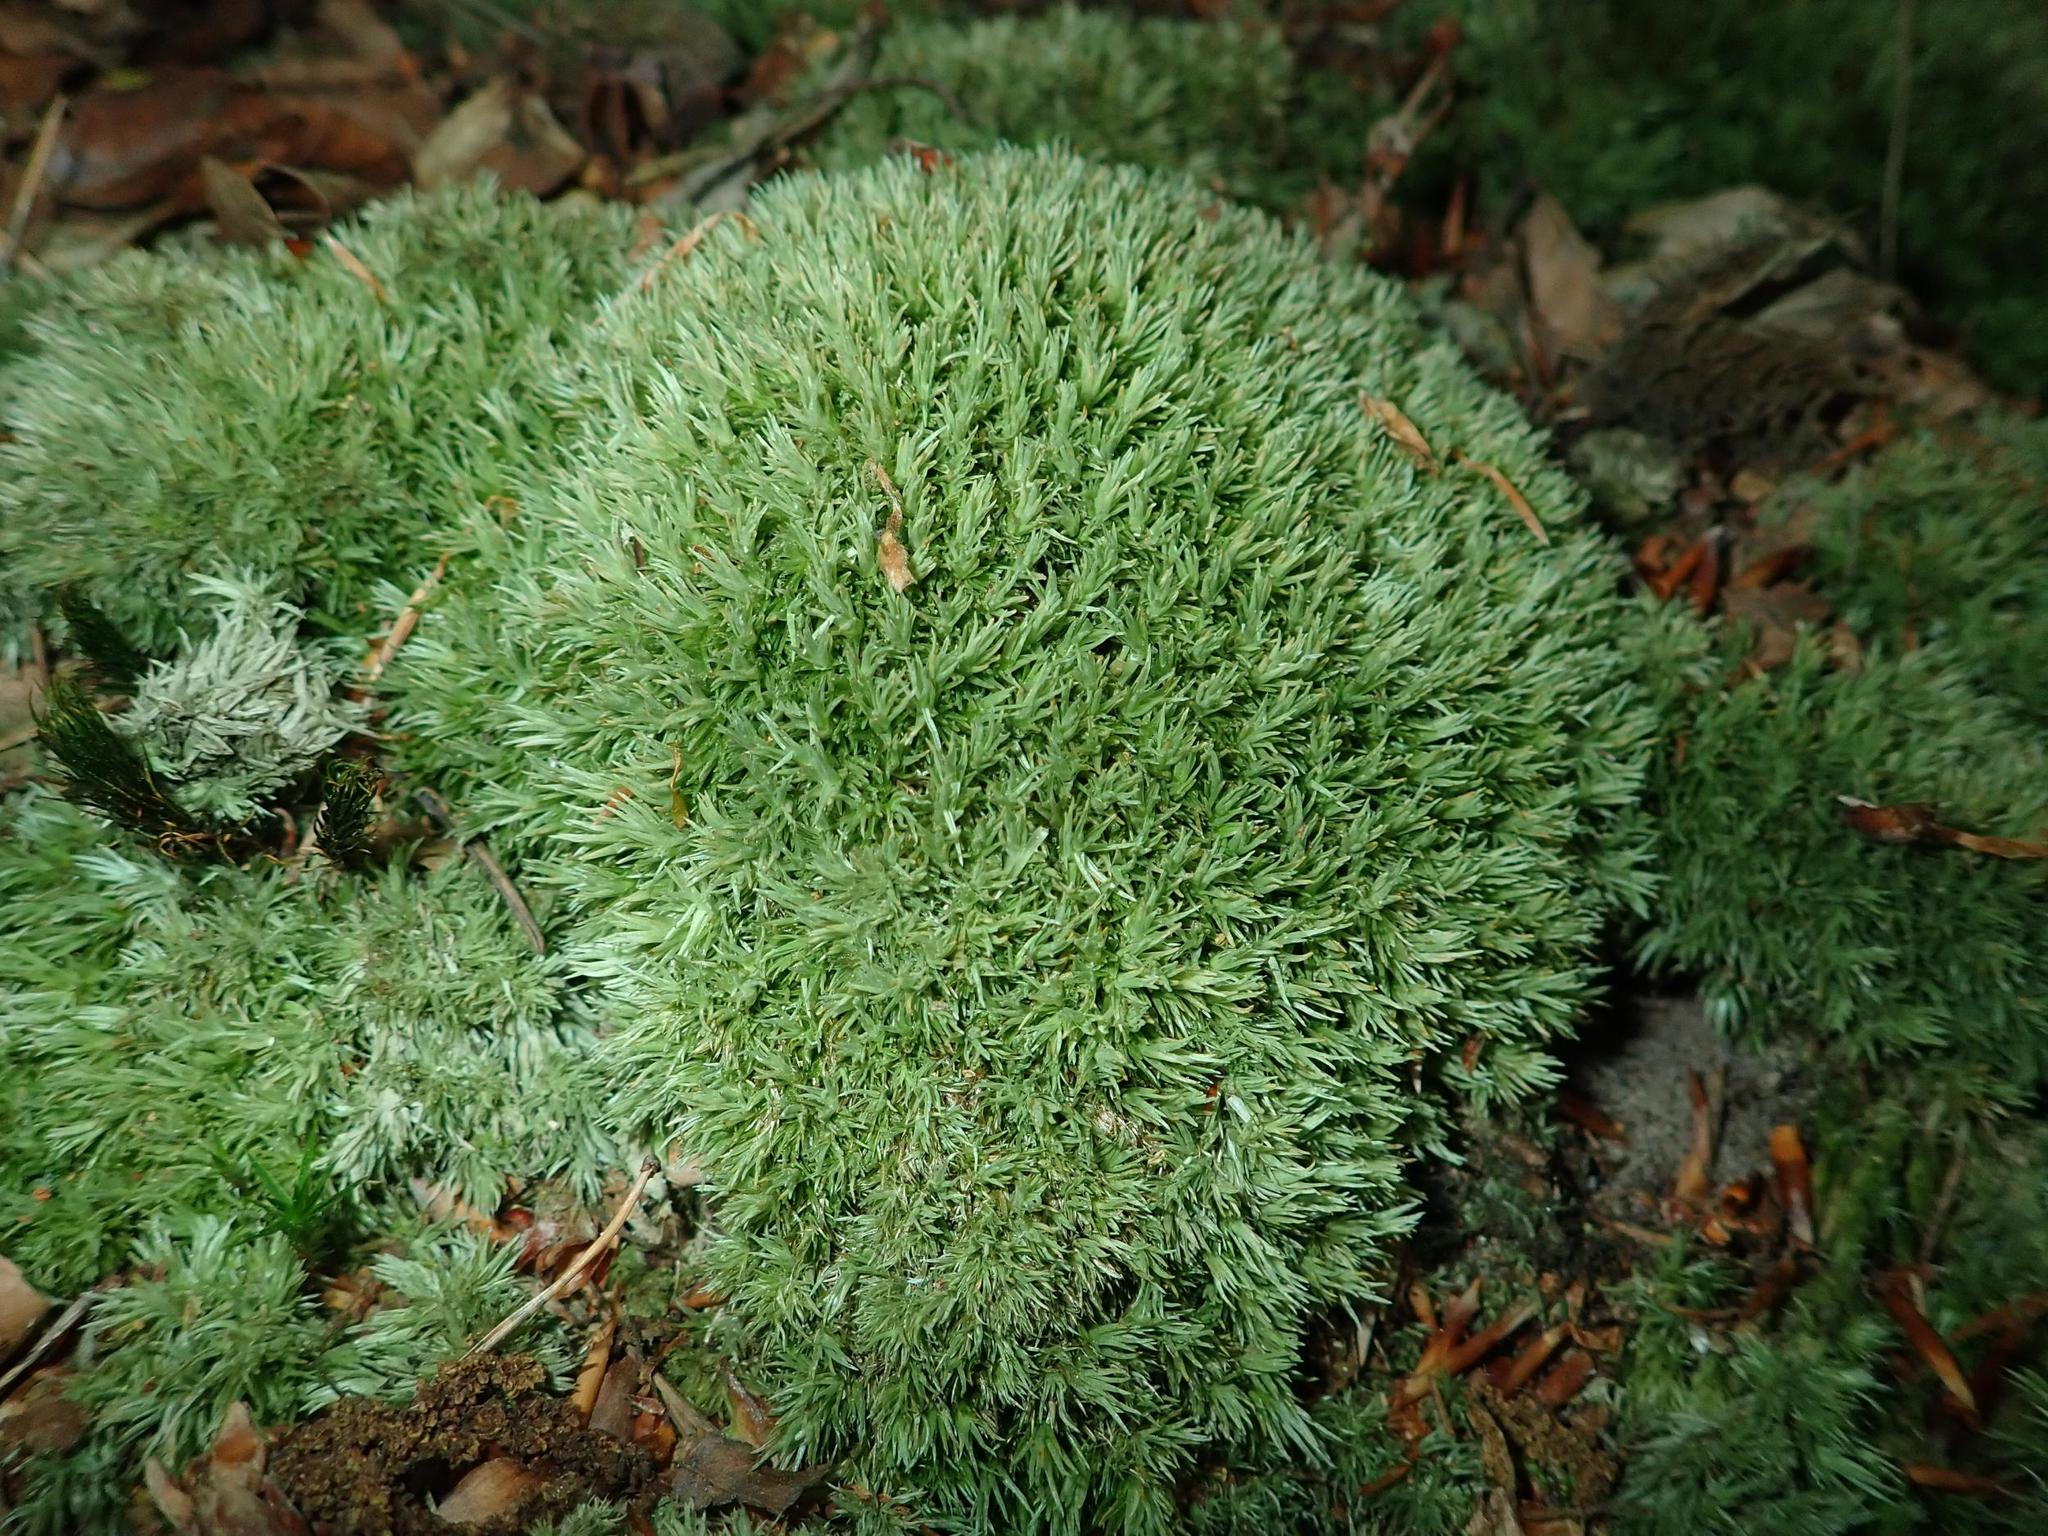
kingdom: Plantae
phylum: Bryophyta
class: Bryopsida
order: Dicranales
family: Leucobryaceae
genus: Leucobryum
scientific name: Leucobryum glaucum
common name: Large white-moss
